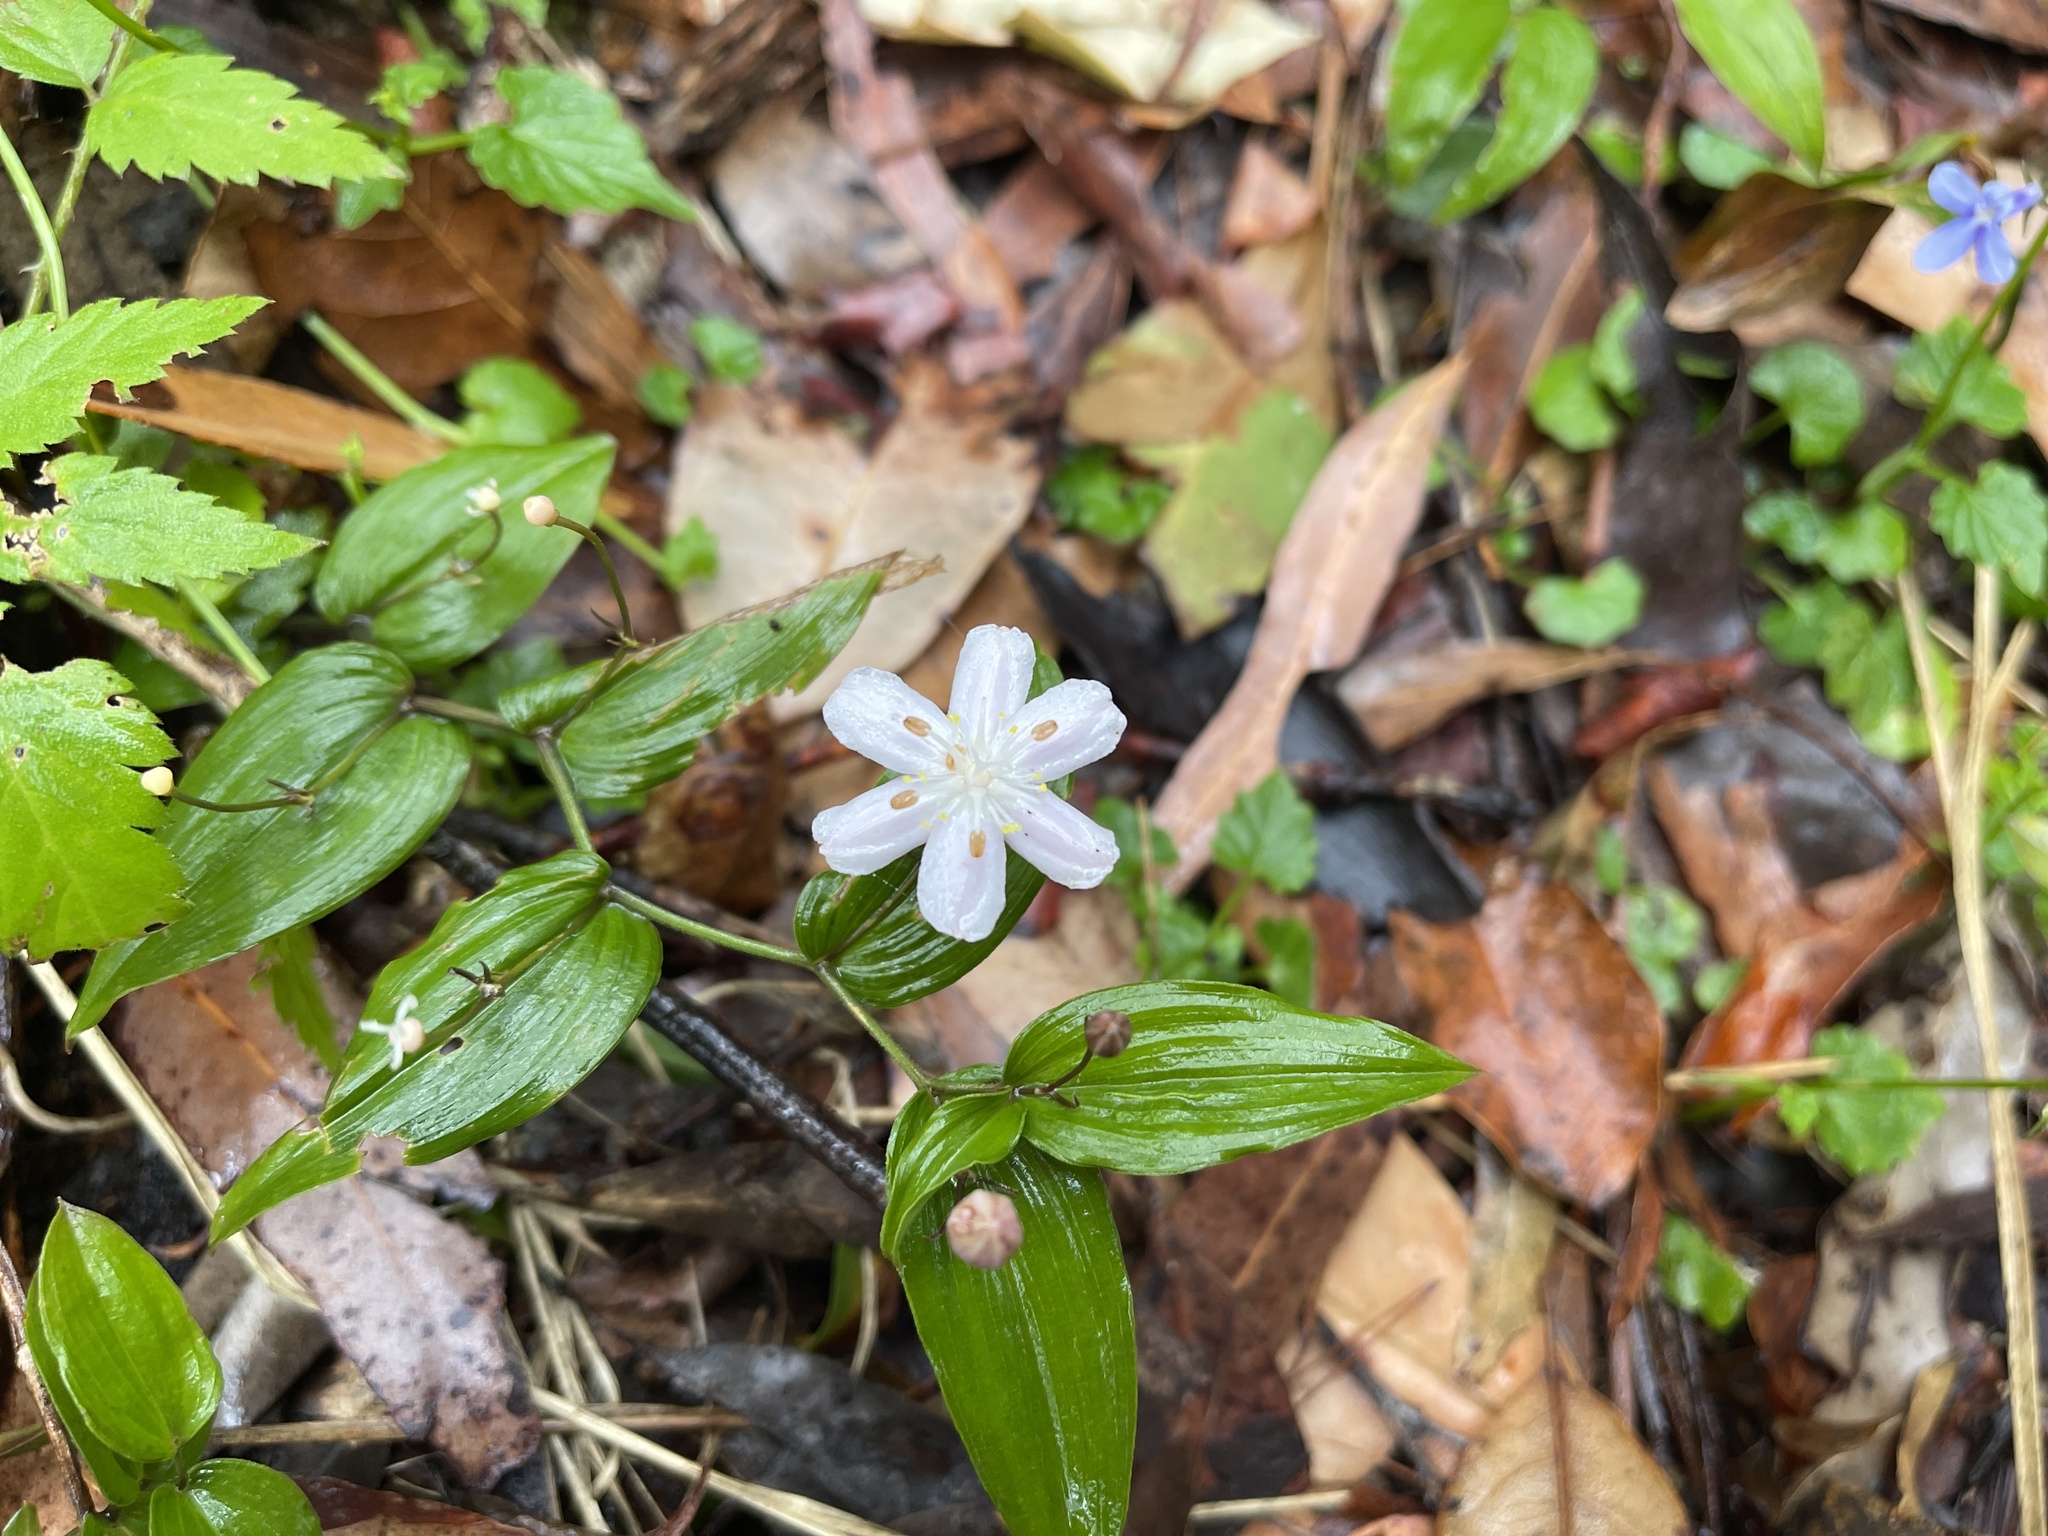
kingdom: Plantae
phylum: Tracheophyta
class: Liliopsida
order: Liliales
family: Colchicaceae
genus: Tripladenia
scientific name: Tripladenia cunninghamii
